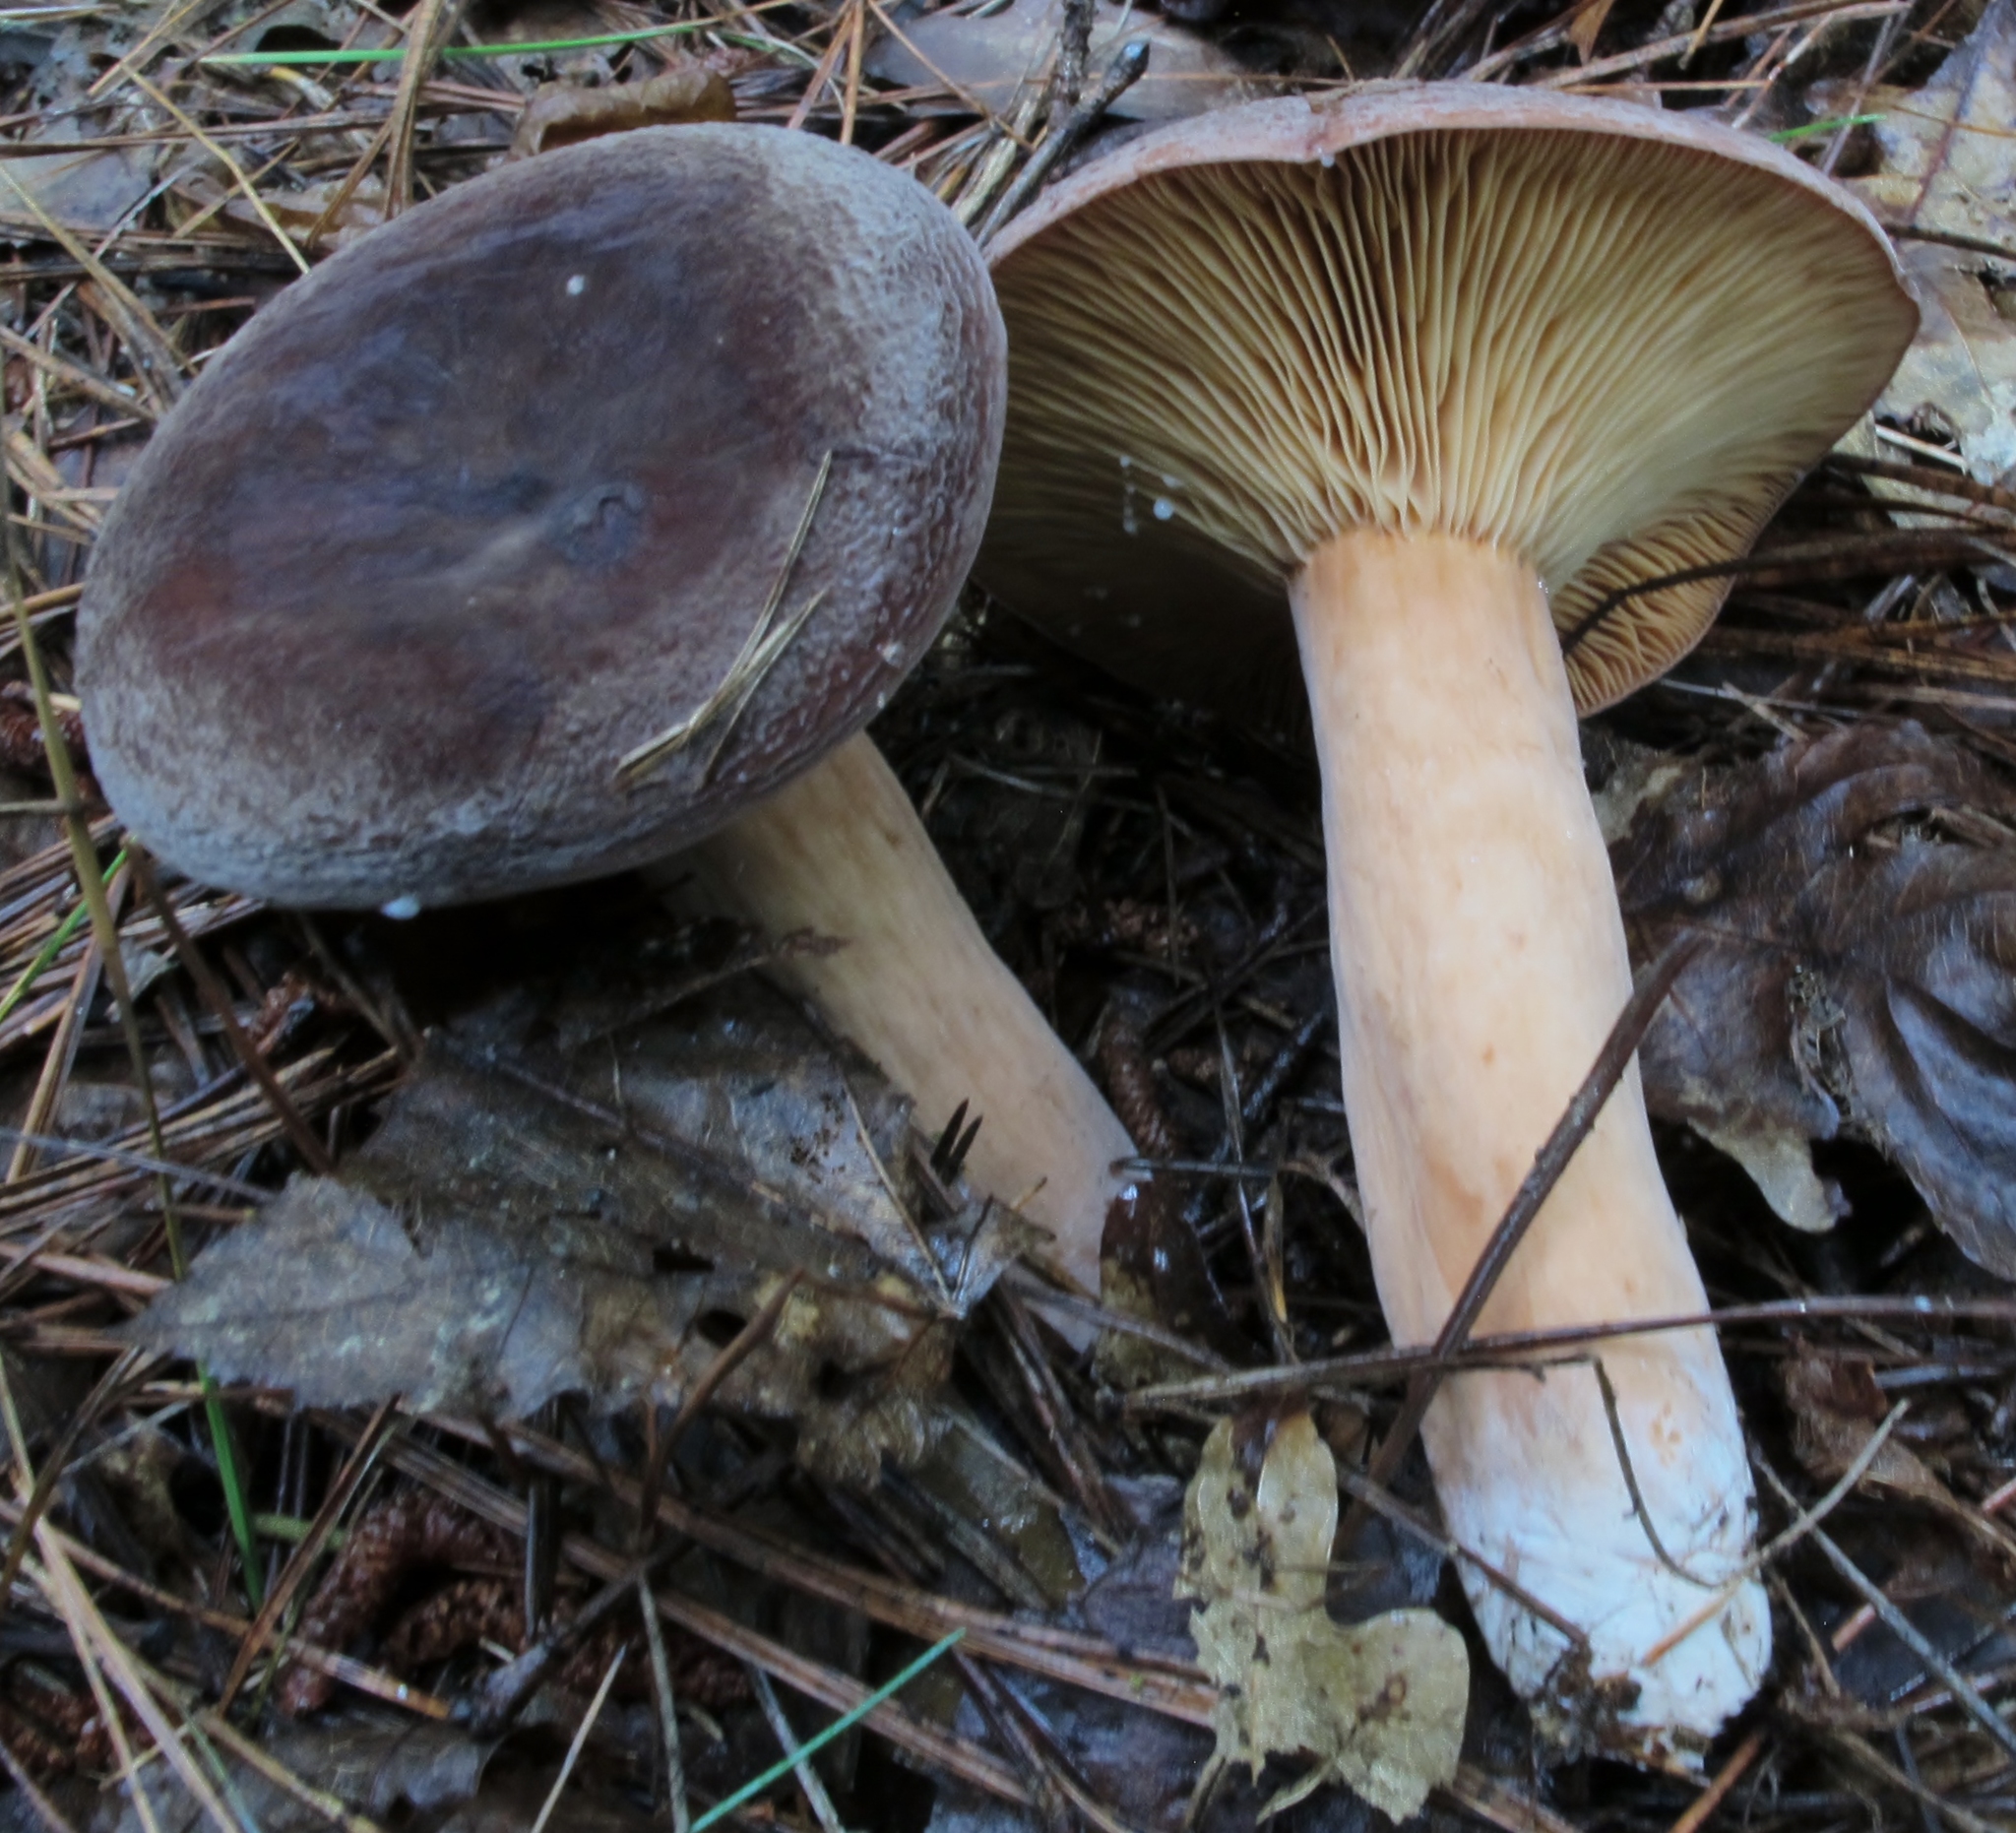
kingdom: Fungi
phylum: Basidiomycota
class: Agaricomycetes
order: Russulales
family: Russulaceae
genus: Lactarius
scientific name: Lactarius corrugis
